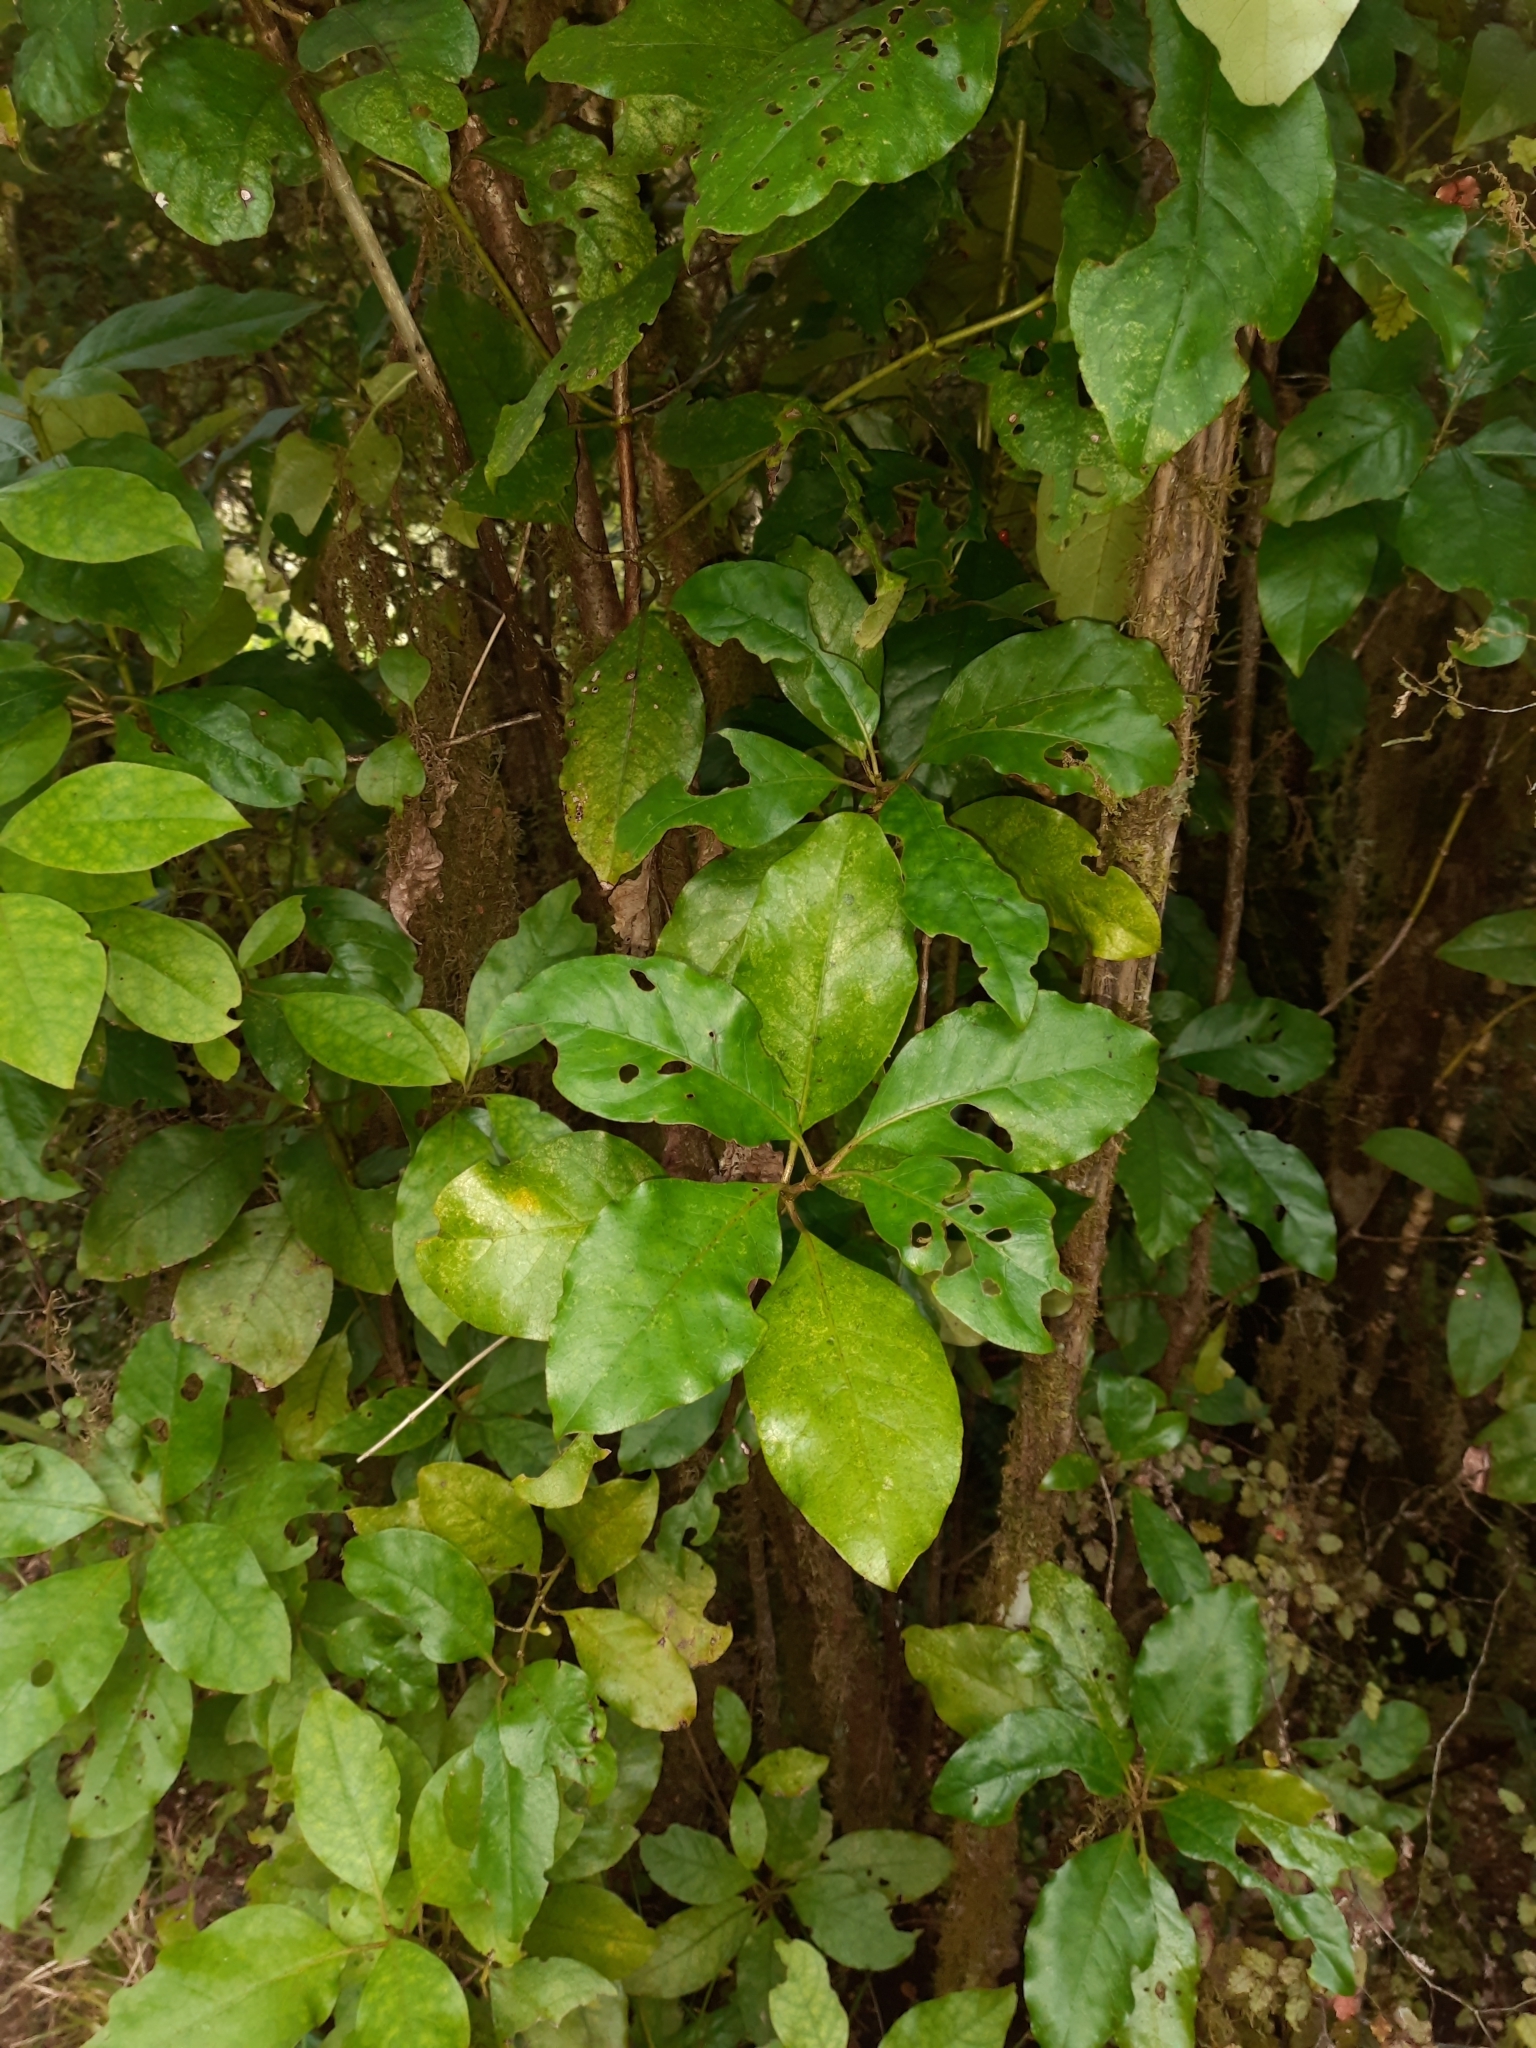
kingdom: Plantae
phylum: Tracheophyta
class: Magnoliopsida
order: Gentianales
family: Rubiaceae
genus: Coprosma
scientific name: Coprosma autumnalis
